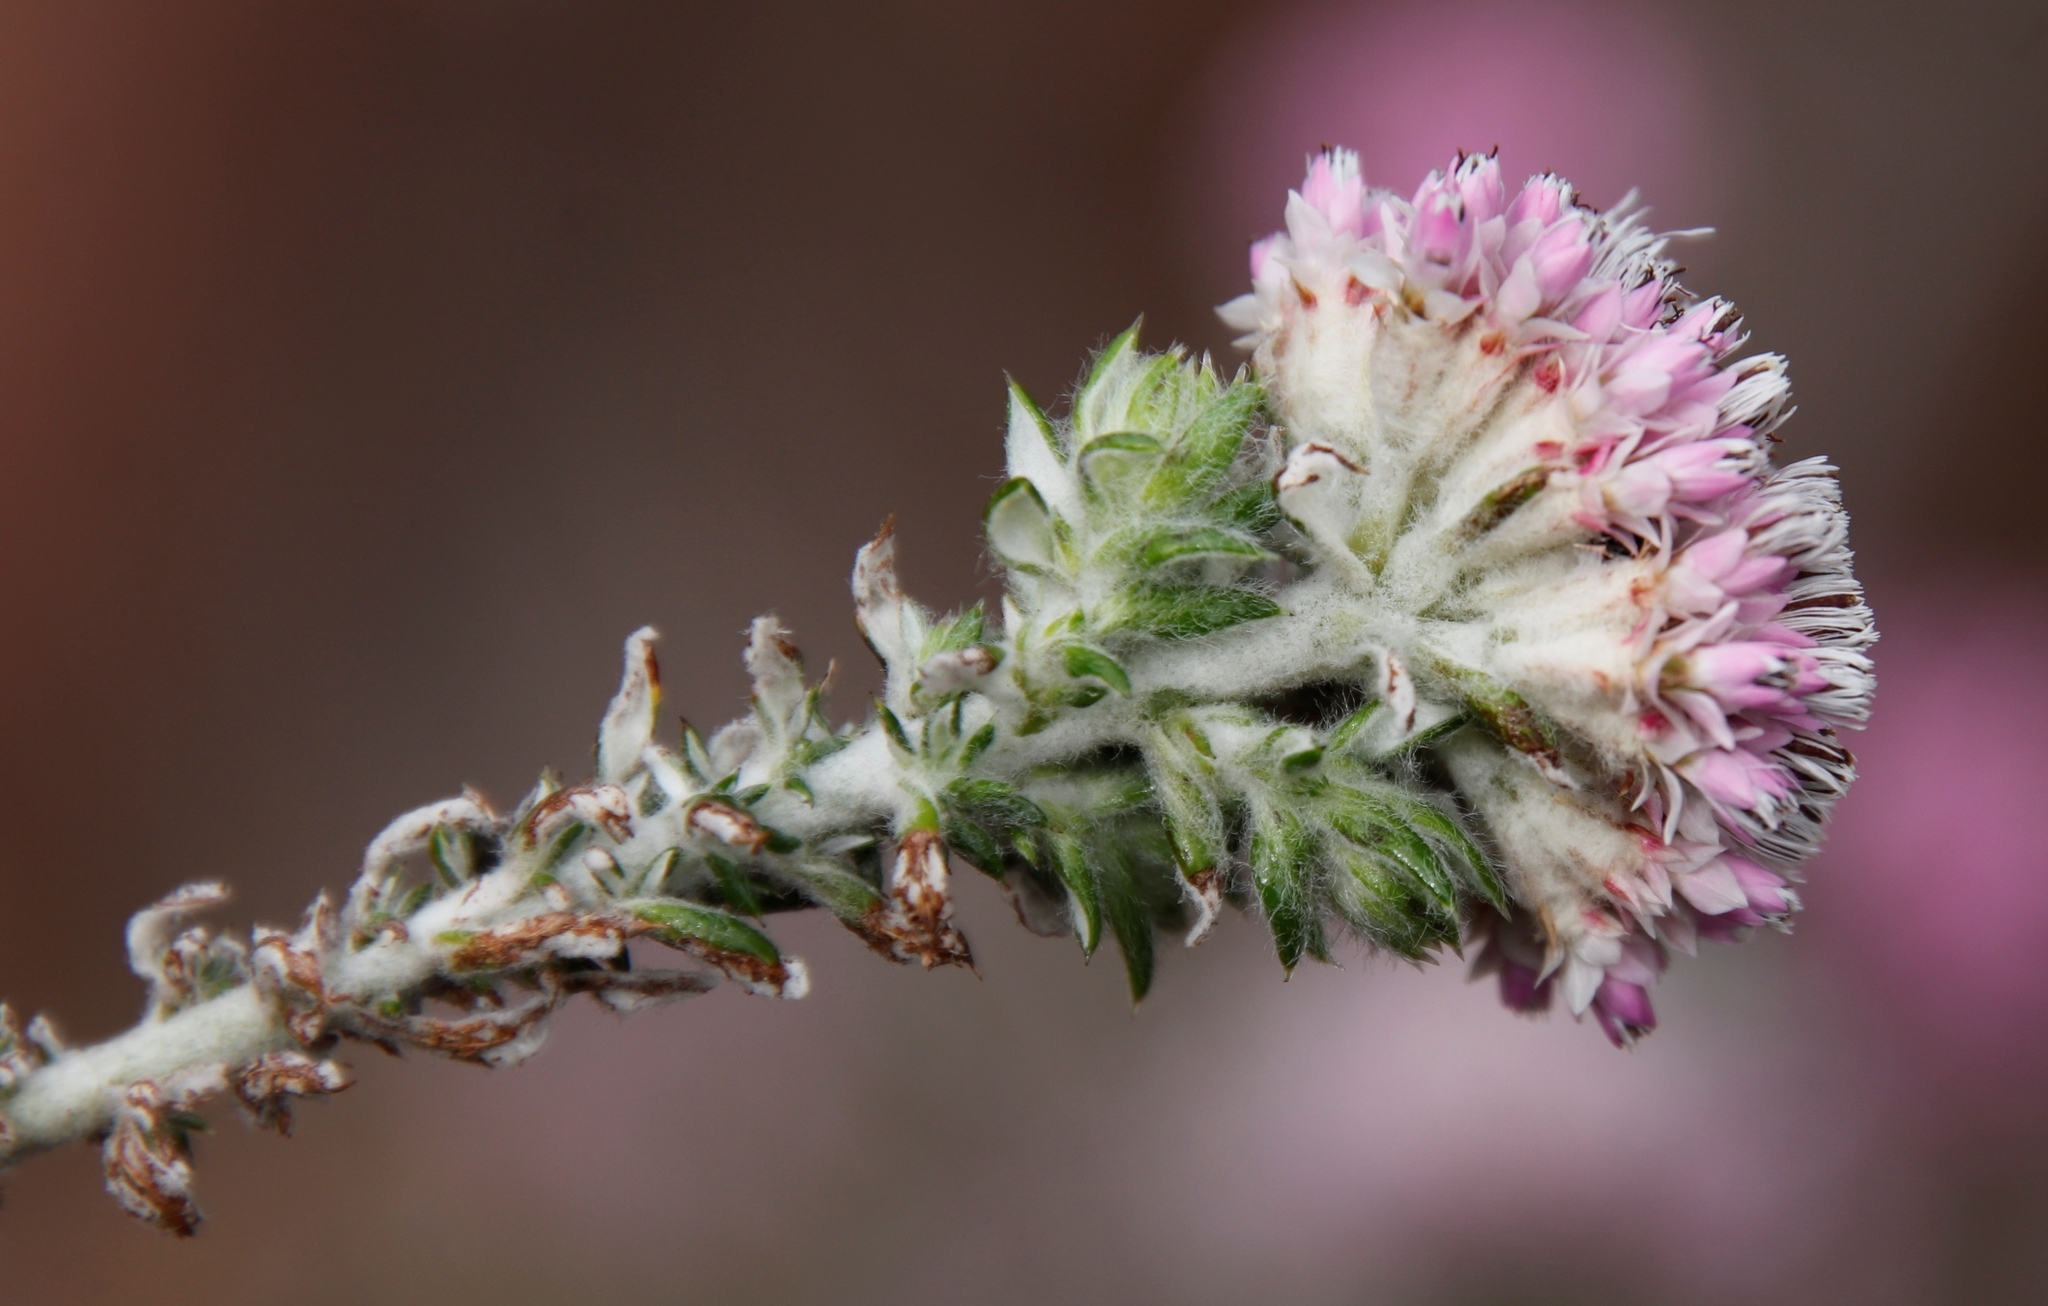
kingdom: Plantae
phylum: Tracheophyta
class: Magnoliopsida
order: Asterales
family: Asteraceae
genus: Metalasia
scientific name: Metalasia cephalotes
